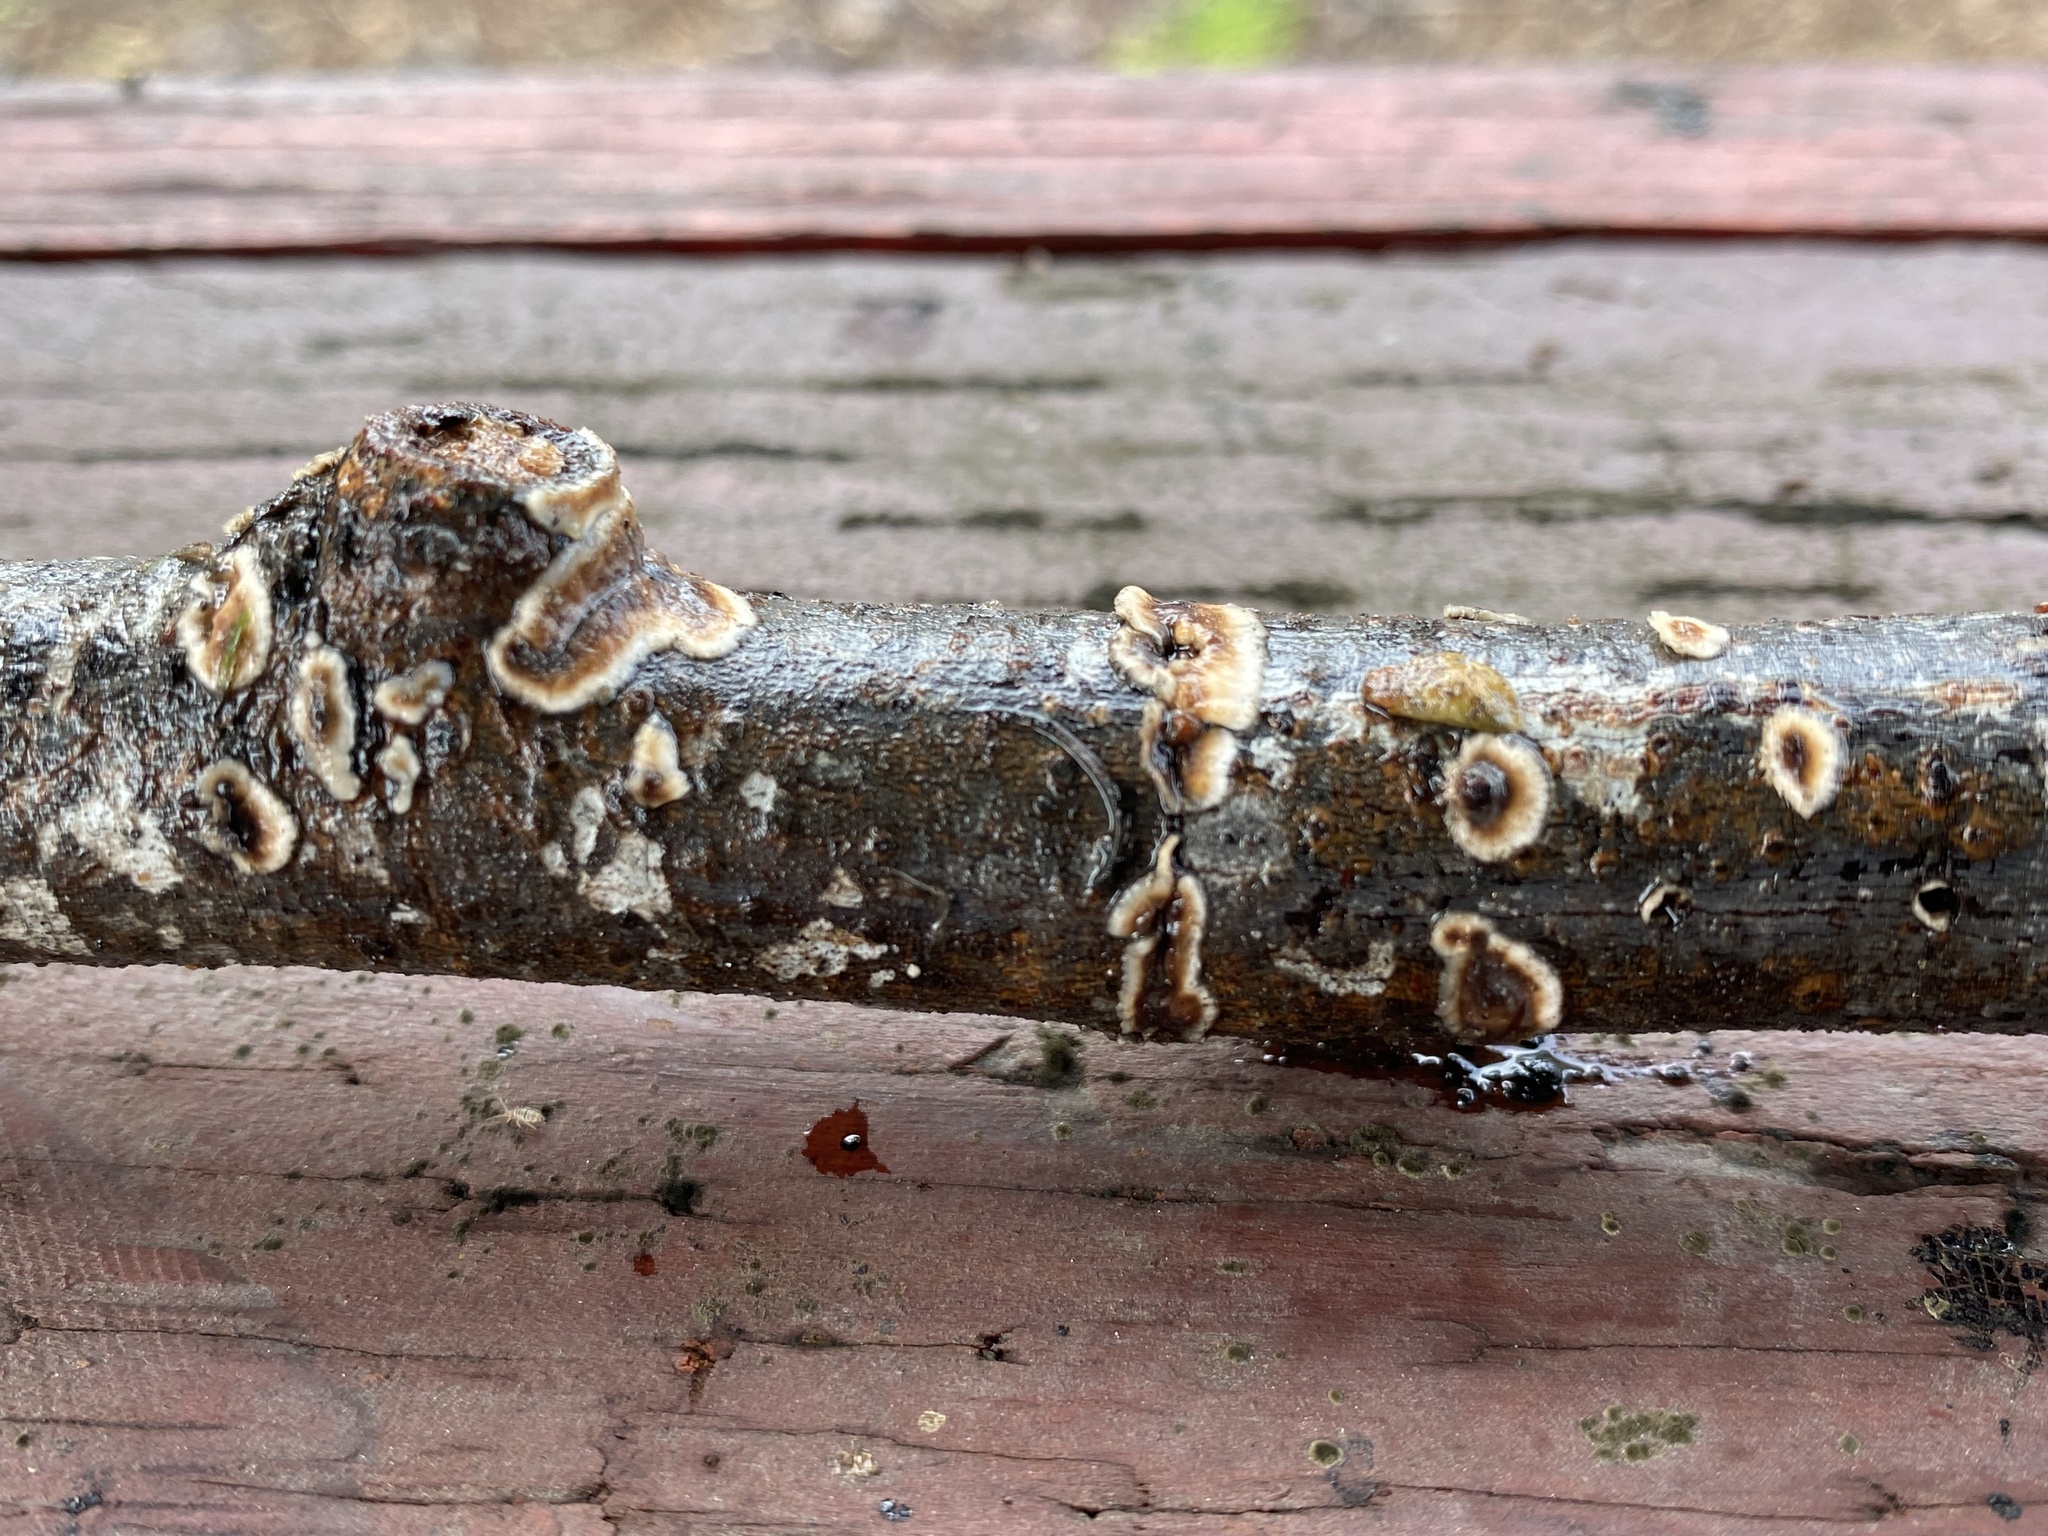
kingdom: Fungi
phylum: Basidiomycota
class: Agaricomycetes
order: Russulales
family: Peniophoraceae
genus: Peniophora
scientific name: Peniophora albobadia
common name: Giraffe spots
